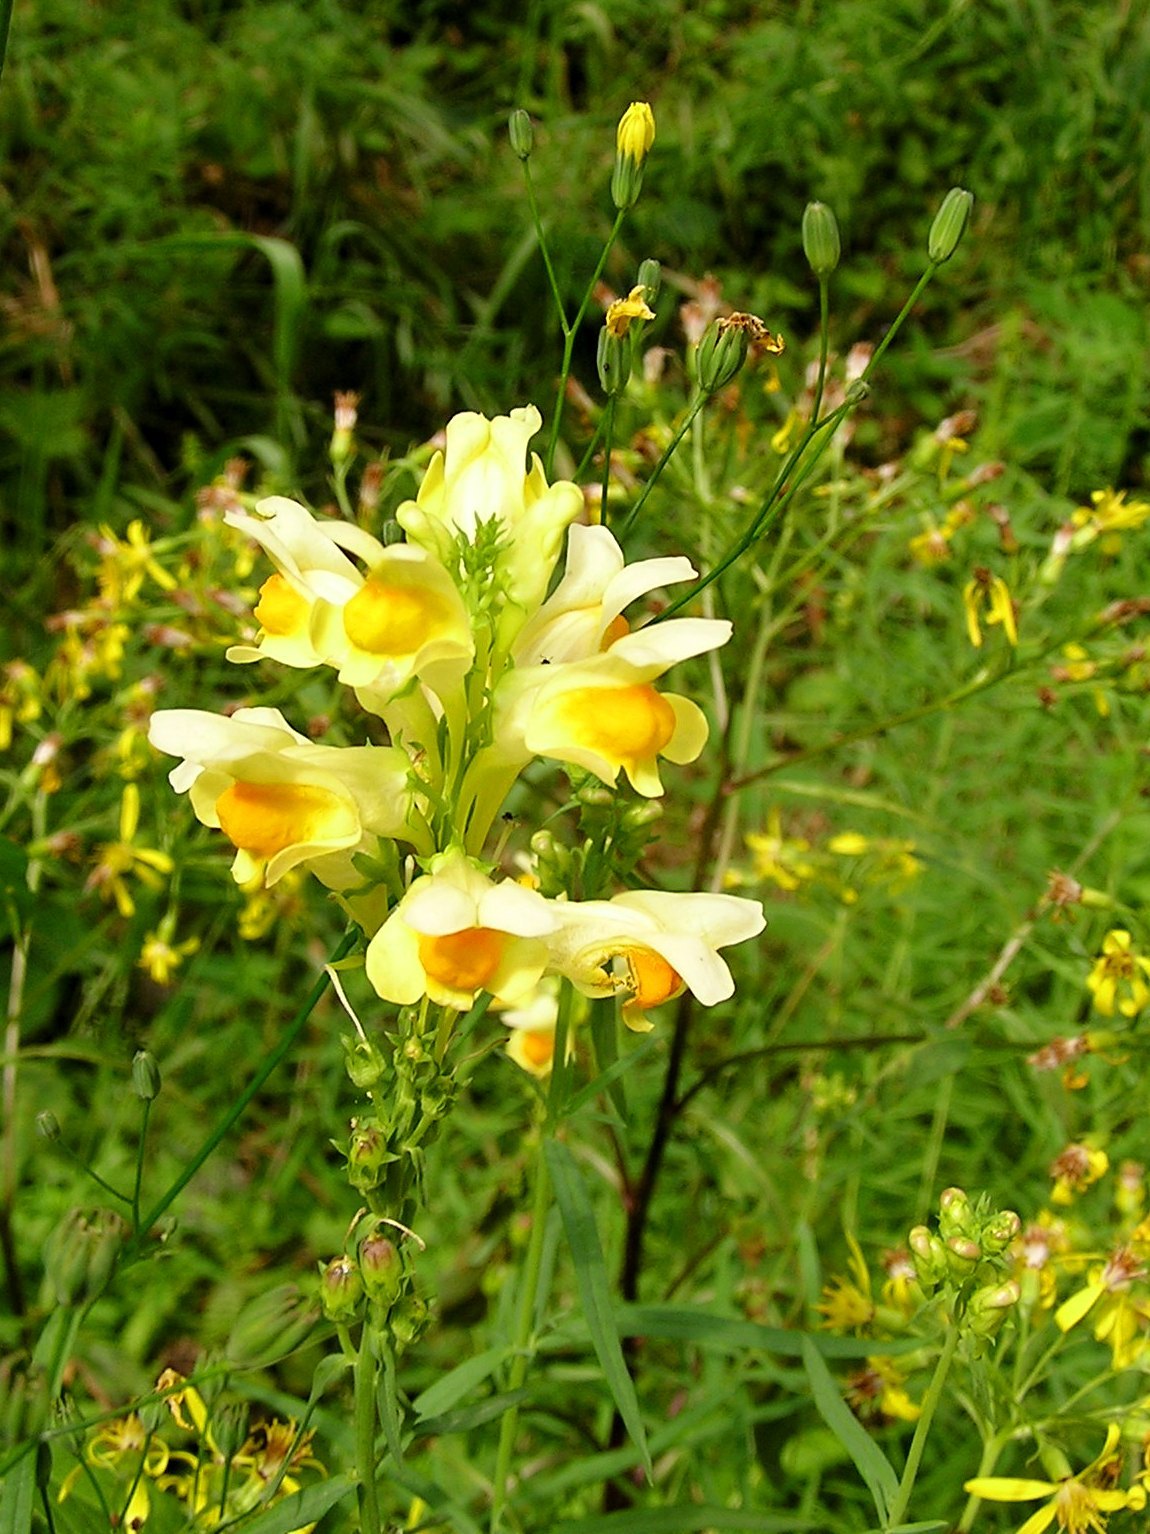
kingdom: Plantae
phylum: Tracheophyta
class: Magnoliopsida
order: Lamiales
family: Plantaginaceae
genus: Linaria
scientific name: Linaria vulgaris
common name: Butter and eggs
